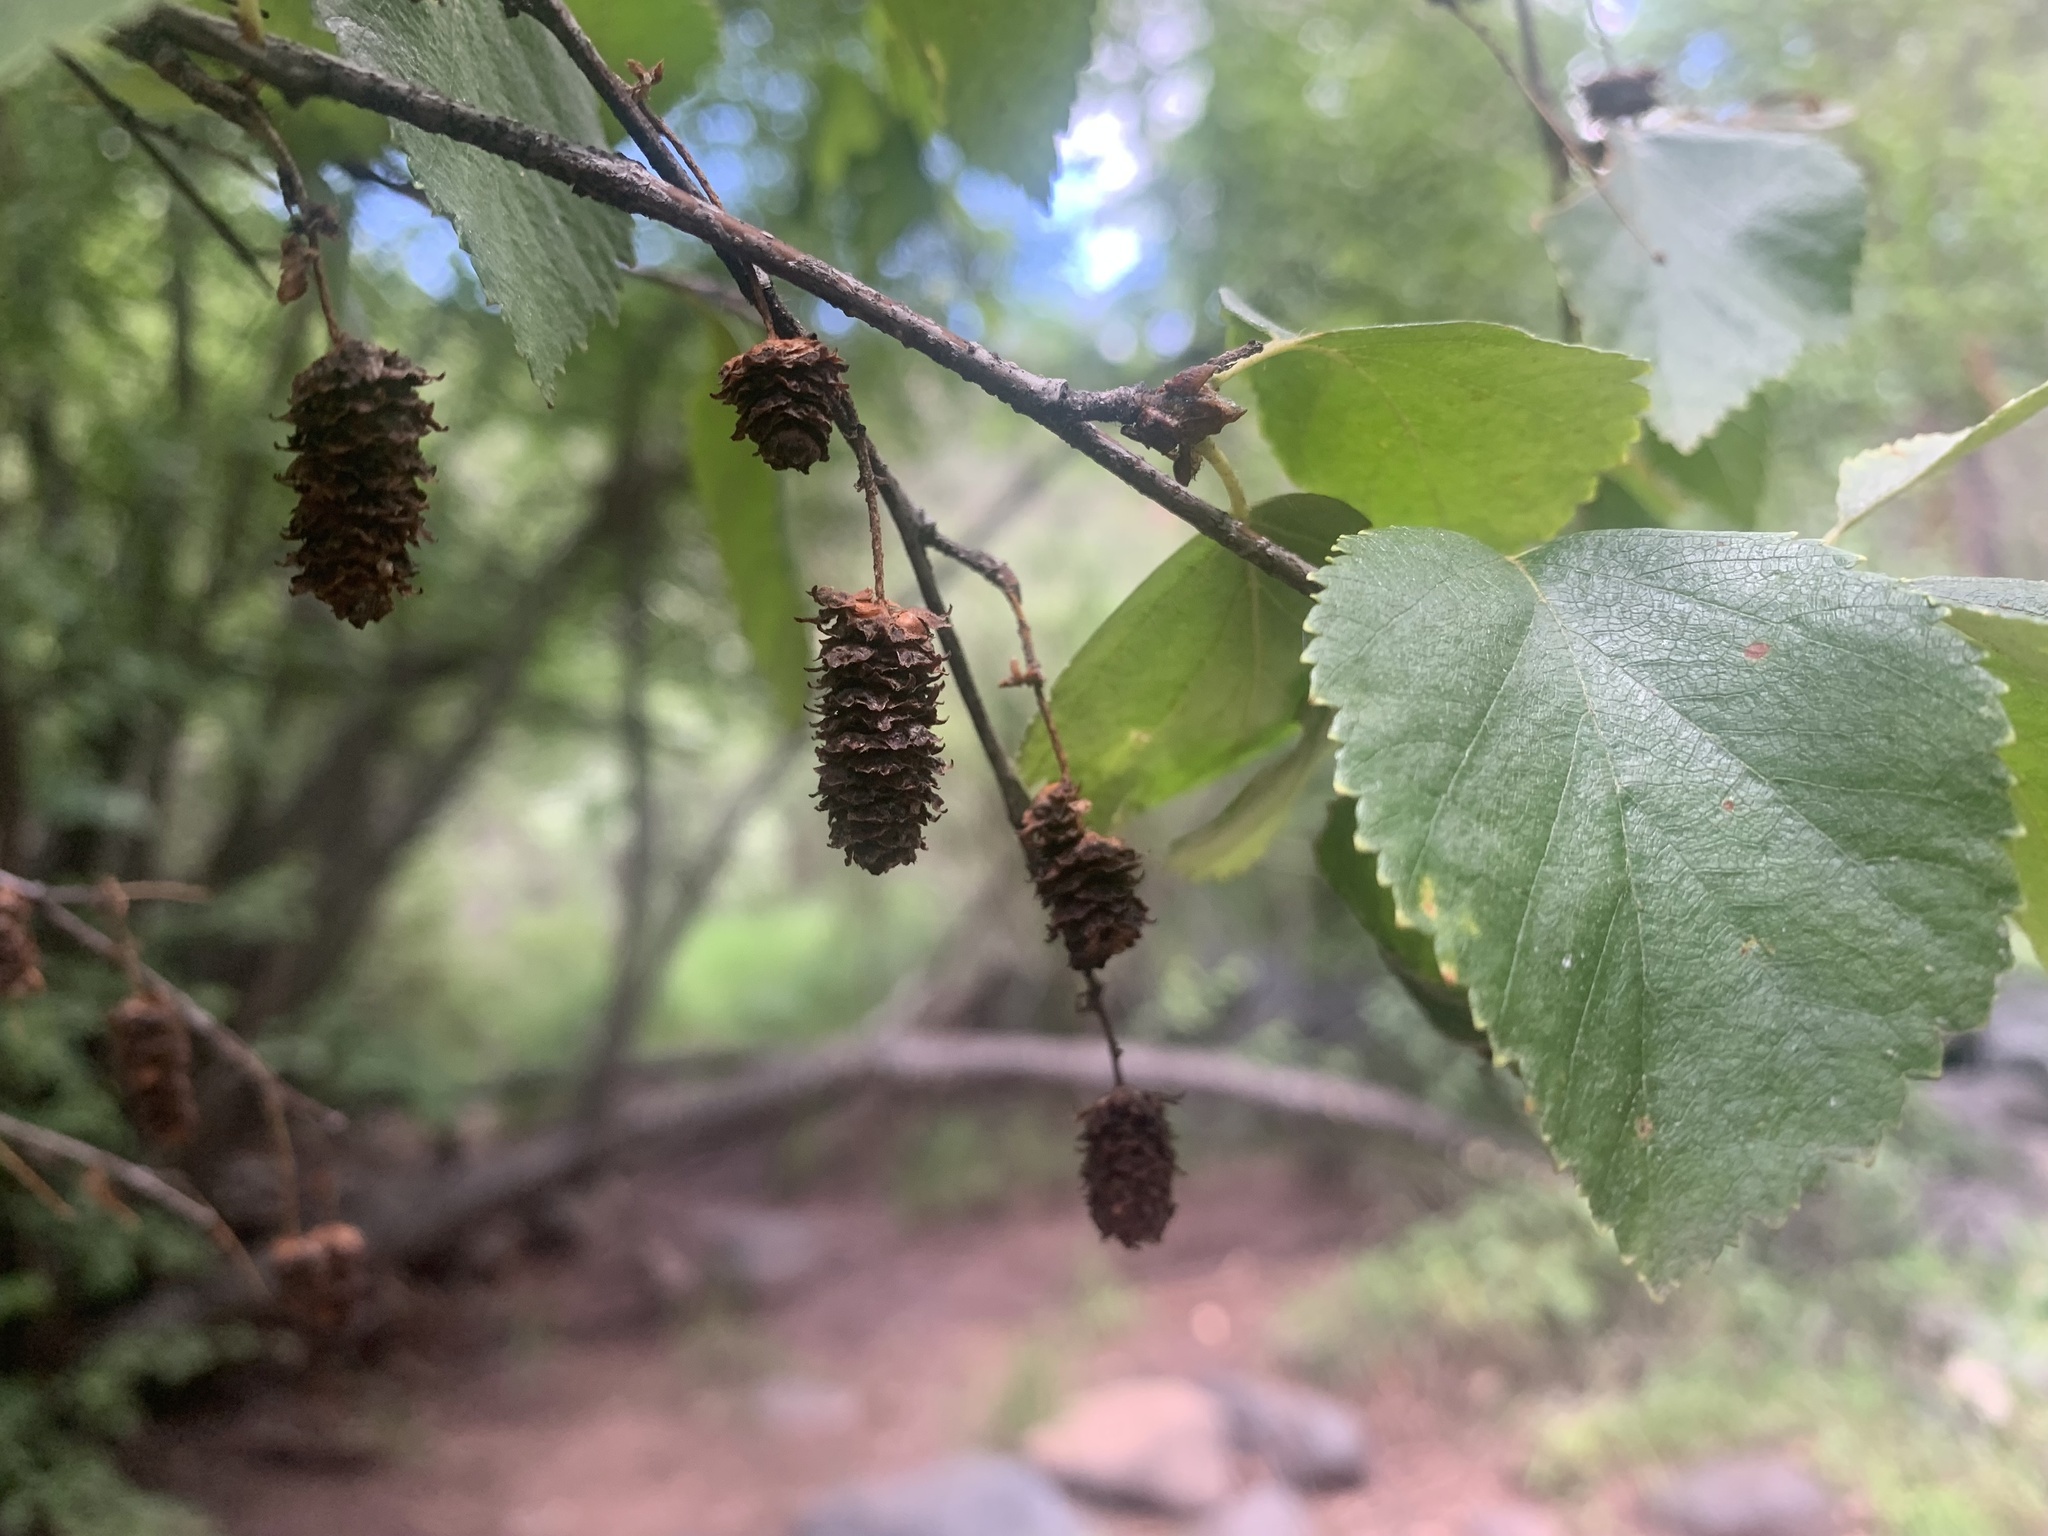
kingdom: Plantae
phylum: Tracheophyta
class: Magnoliopsida
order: Fagales
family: Betulaceae
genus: Betula
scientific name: Betula occidentalis
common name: River birch
